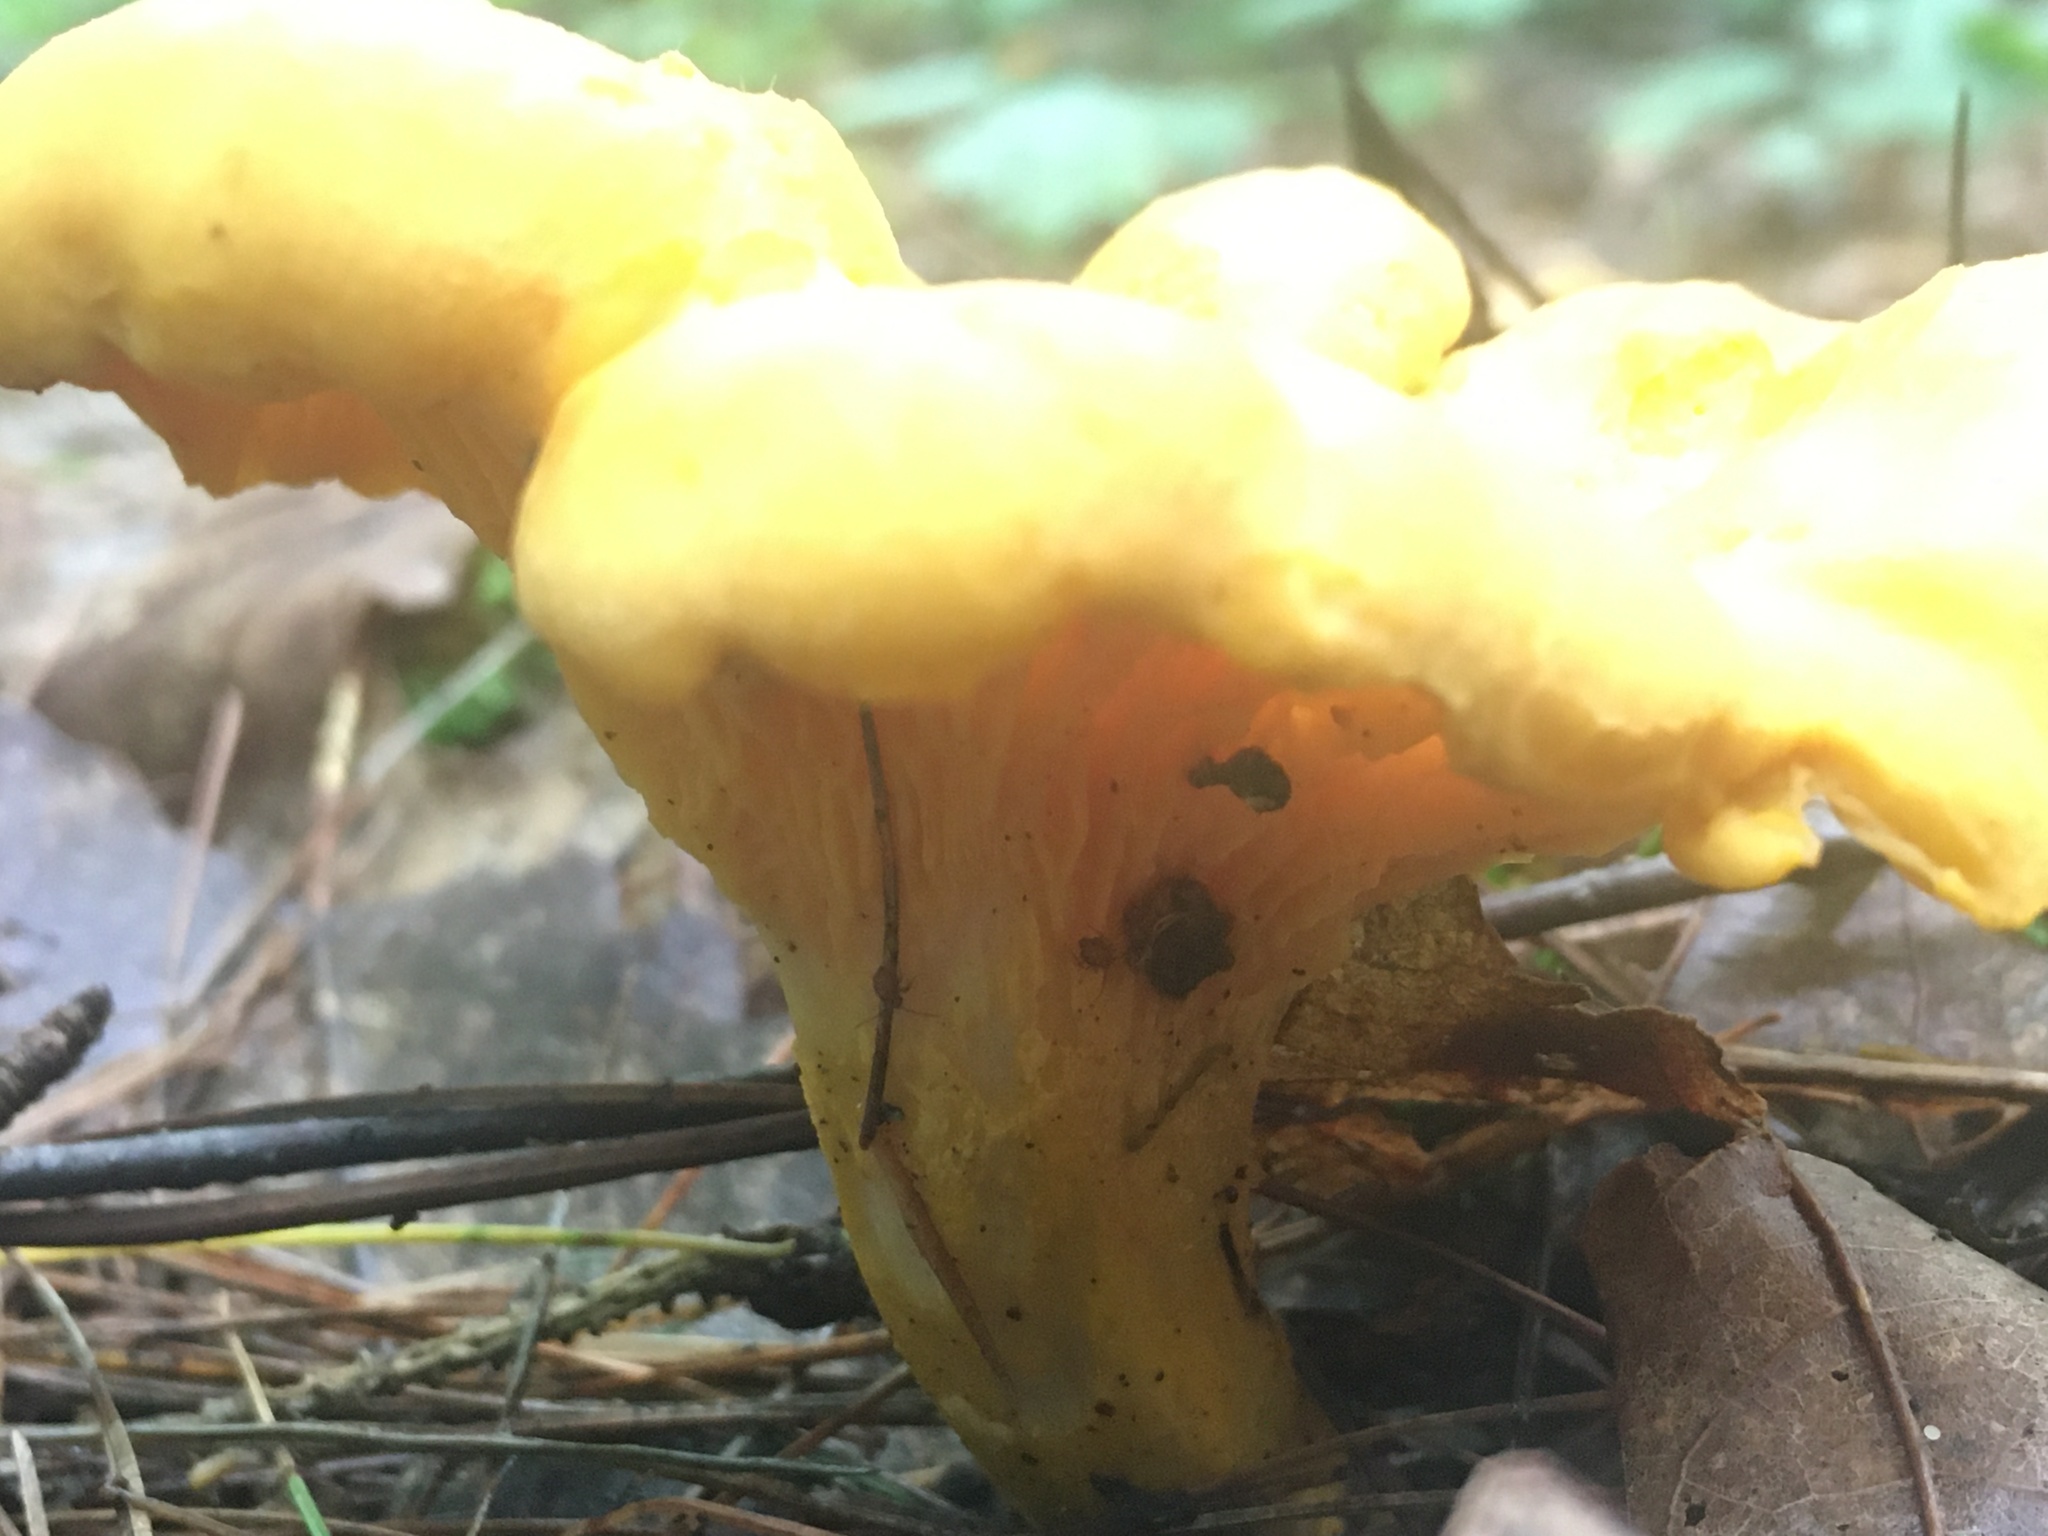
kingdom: Fungi
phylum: Basidiomycota
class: Agaricomycetes
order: Cantharellales
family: Hydnaceae
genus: Cantharellus
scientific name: Cantharellus lateritius
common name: Smooth chanterelle
